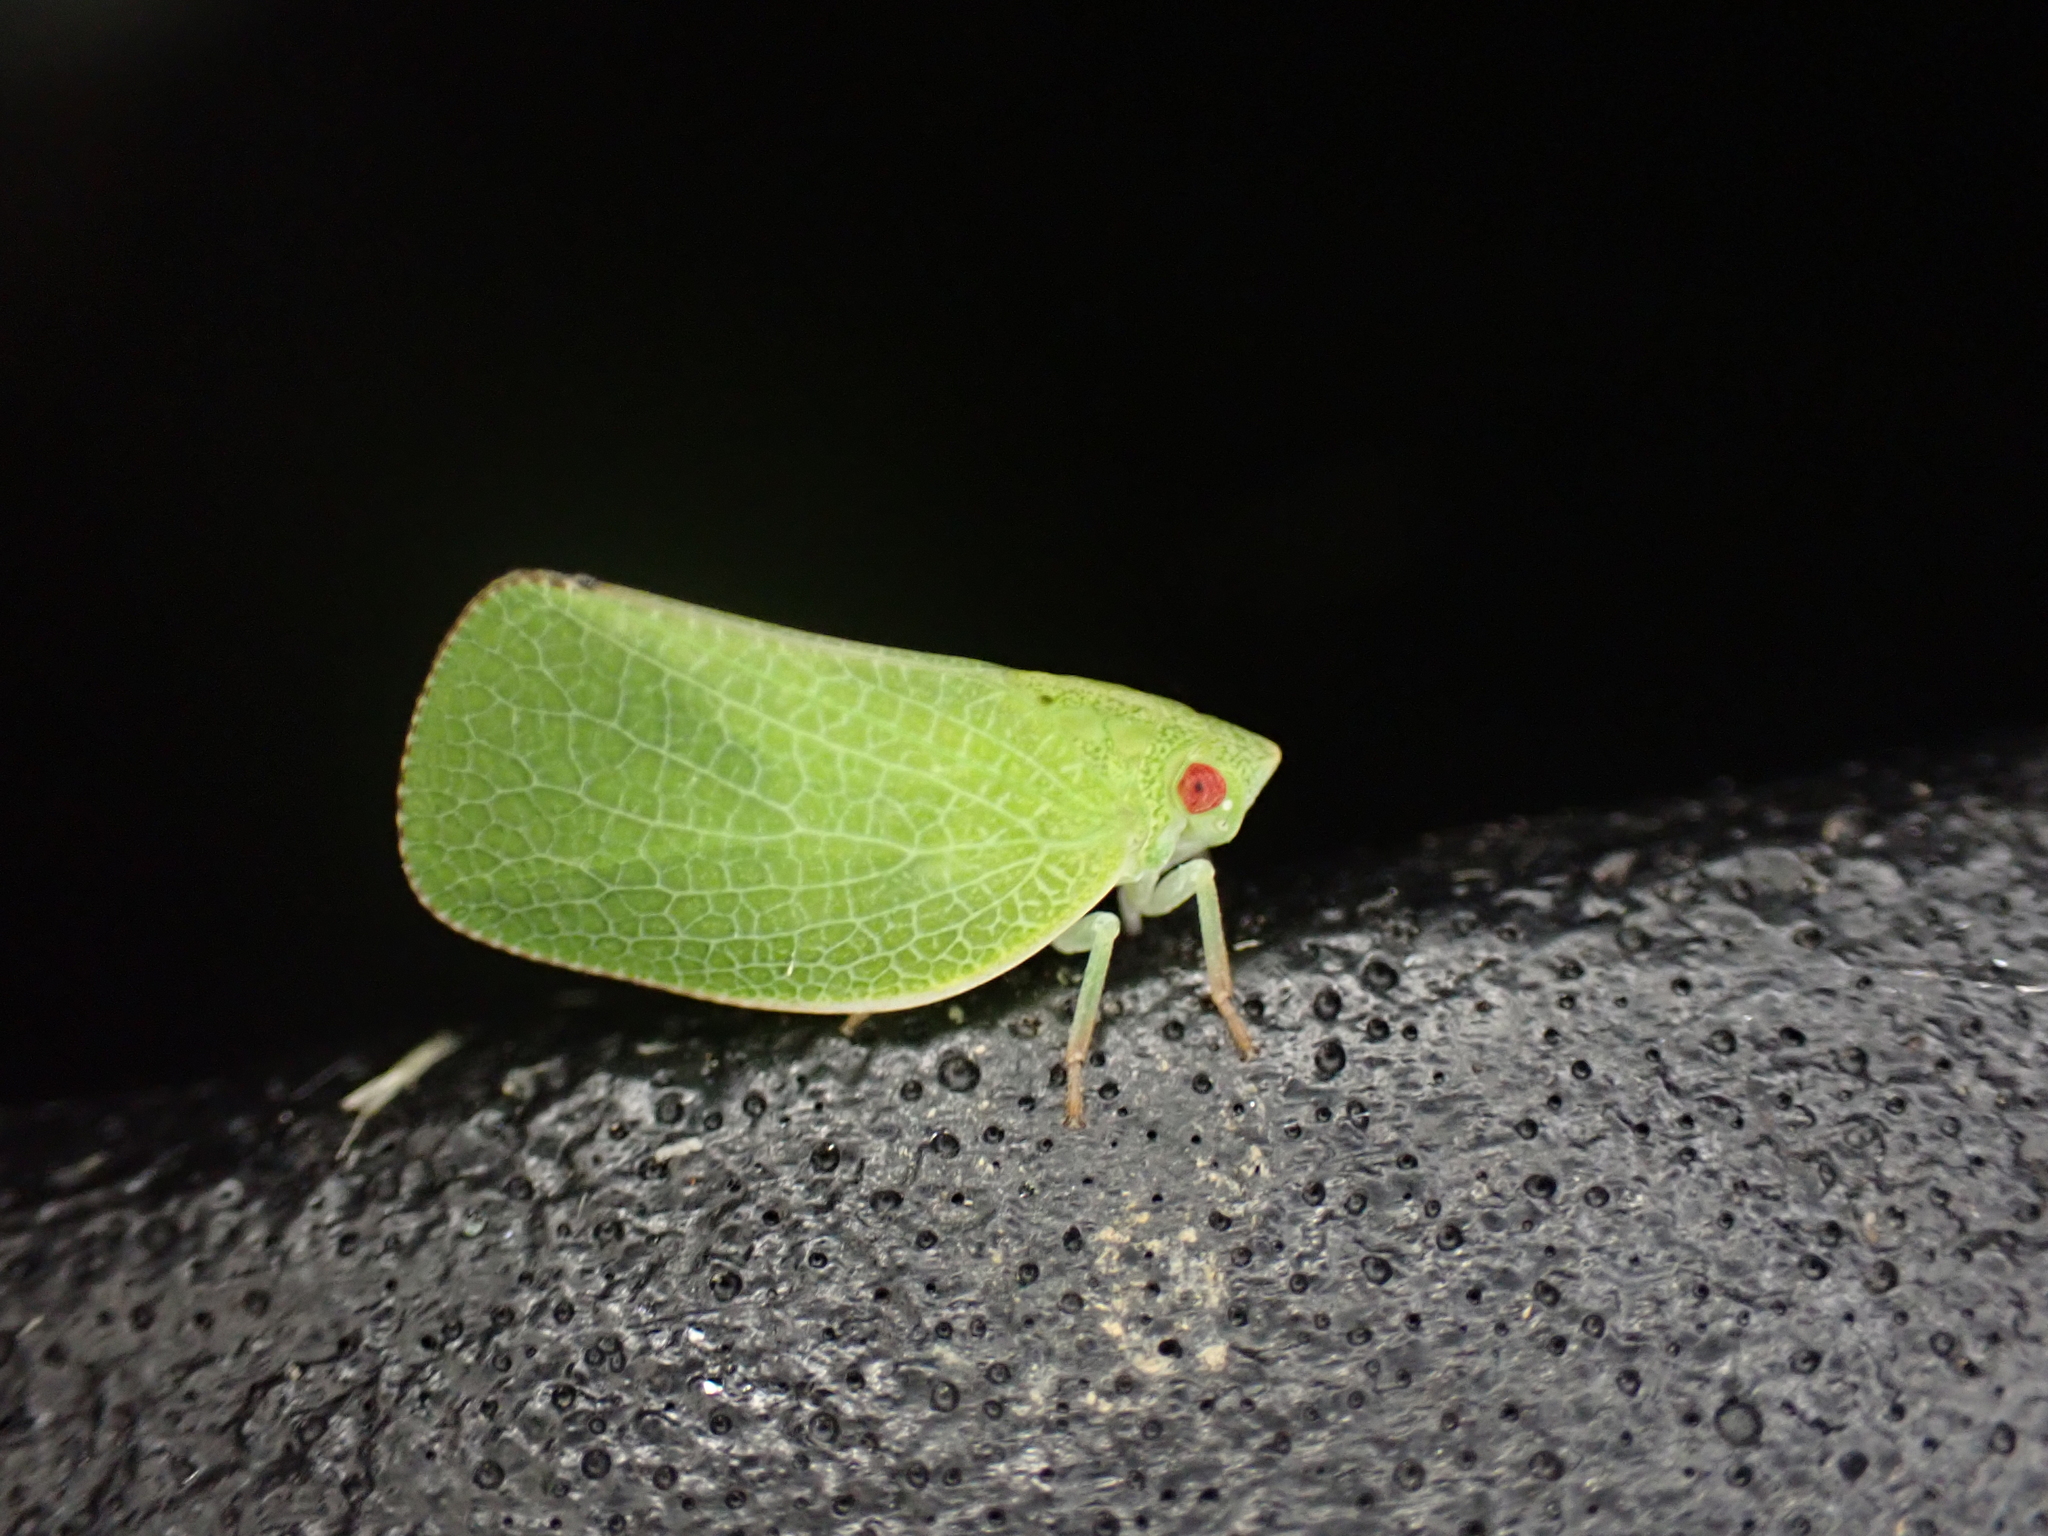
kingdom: Animalia
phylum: Arthropoda
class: Insecta
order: Hemiptera
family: Acanaloniidae
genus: Acanalonia
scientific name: Acanalonia conica
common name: Green cone-headed planthopper
